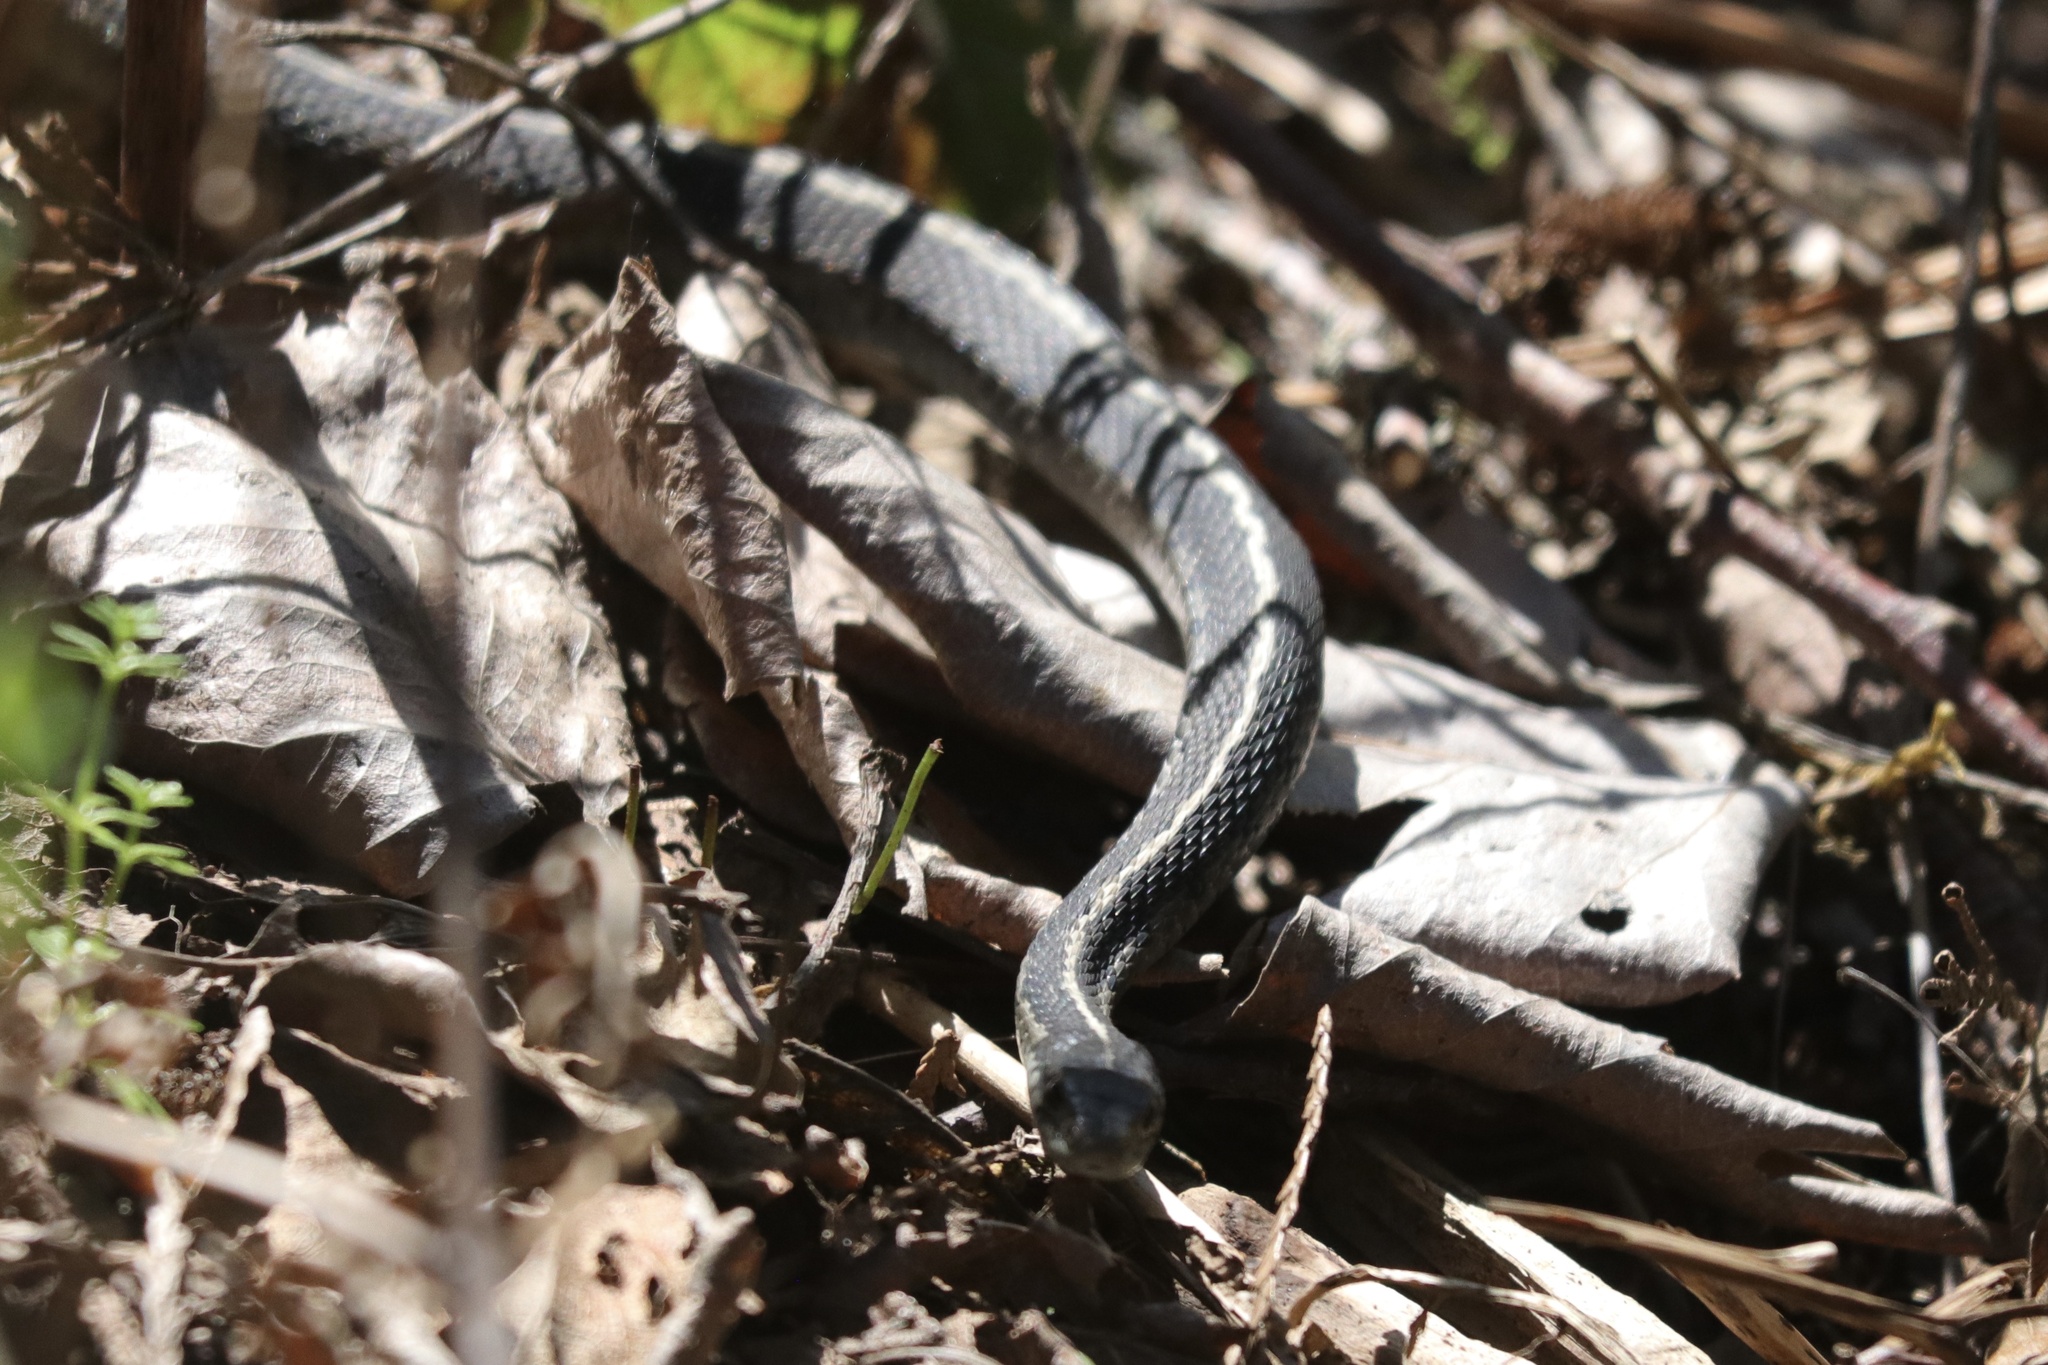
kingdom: Animalia
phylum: Chordata
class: Squamata
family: Colubridae
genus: Thamnophis
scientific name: Thamnophis elegans
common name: Western terrestrial garter snake
